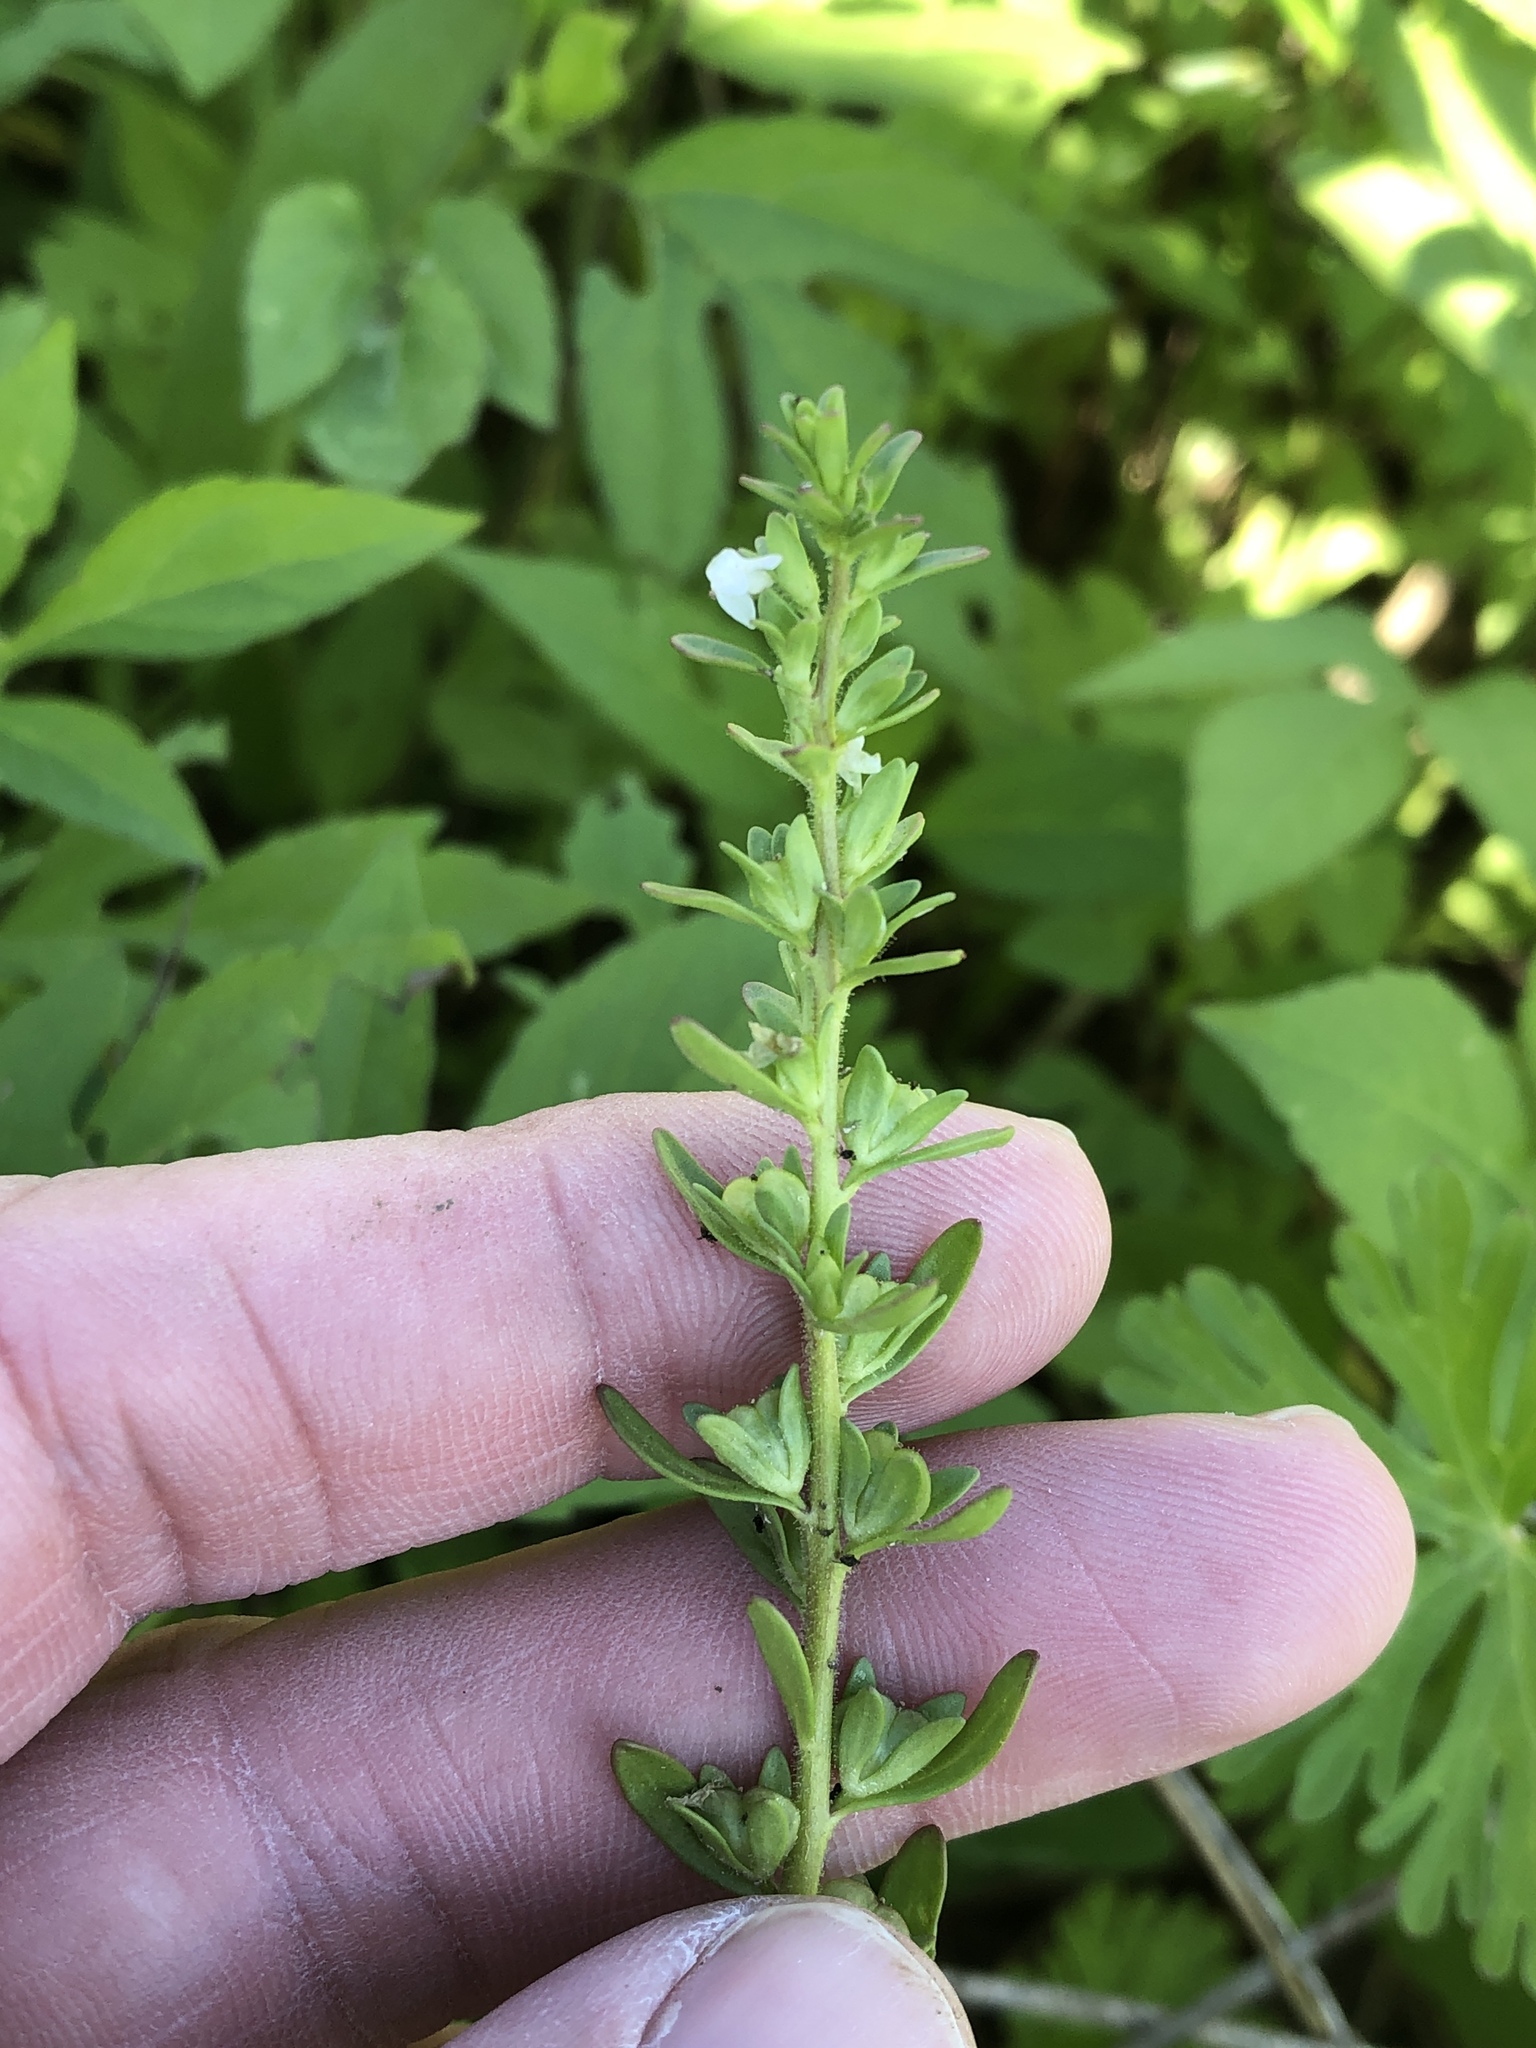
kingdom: Plantae
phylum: Tracheophyta
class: Magnoliopsida
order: Lamiales
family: Plantaginaceae
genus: Veronica
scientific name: Veronica peregrina
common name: Neckweed
